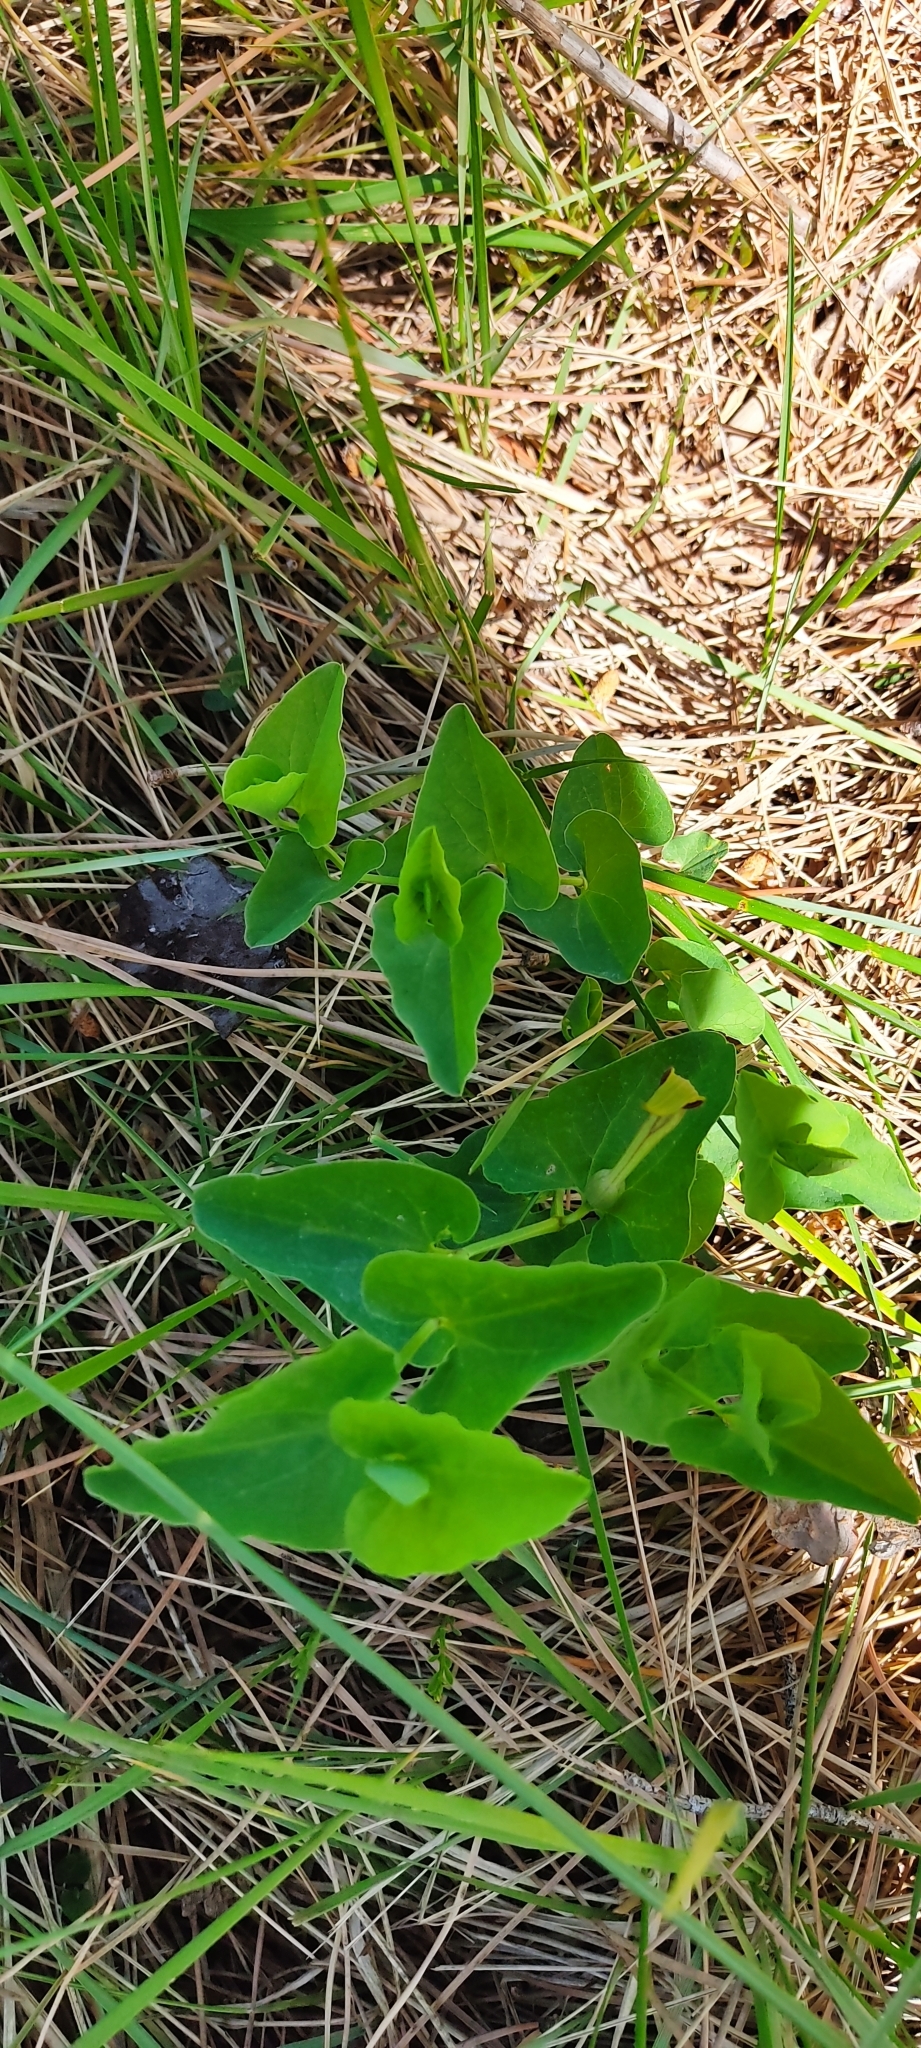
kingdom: Plantae
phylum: Tracheophyta
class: Magnoliopsida
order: Piperales
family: Aristolochiaceae
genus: Aristolochia
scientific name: Aristolochia paucinervis
